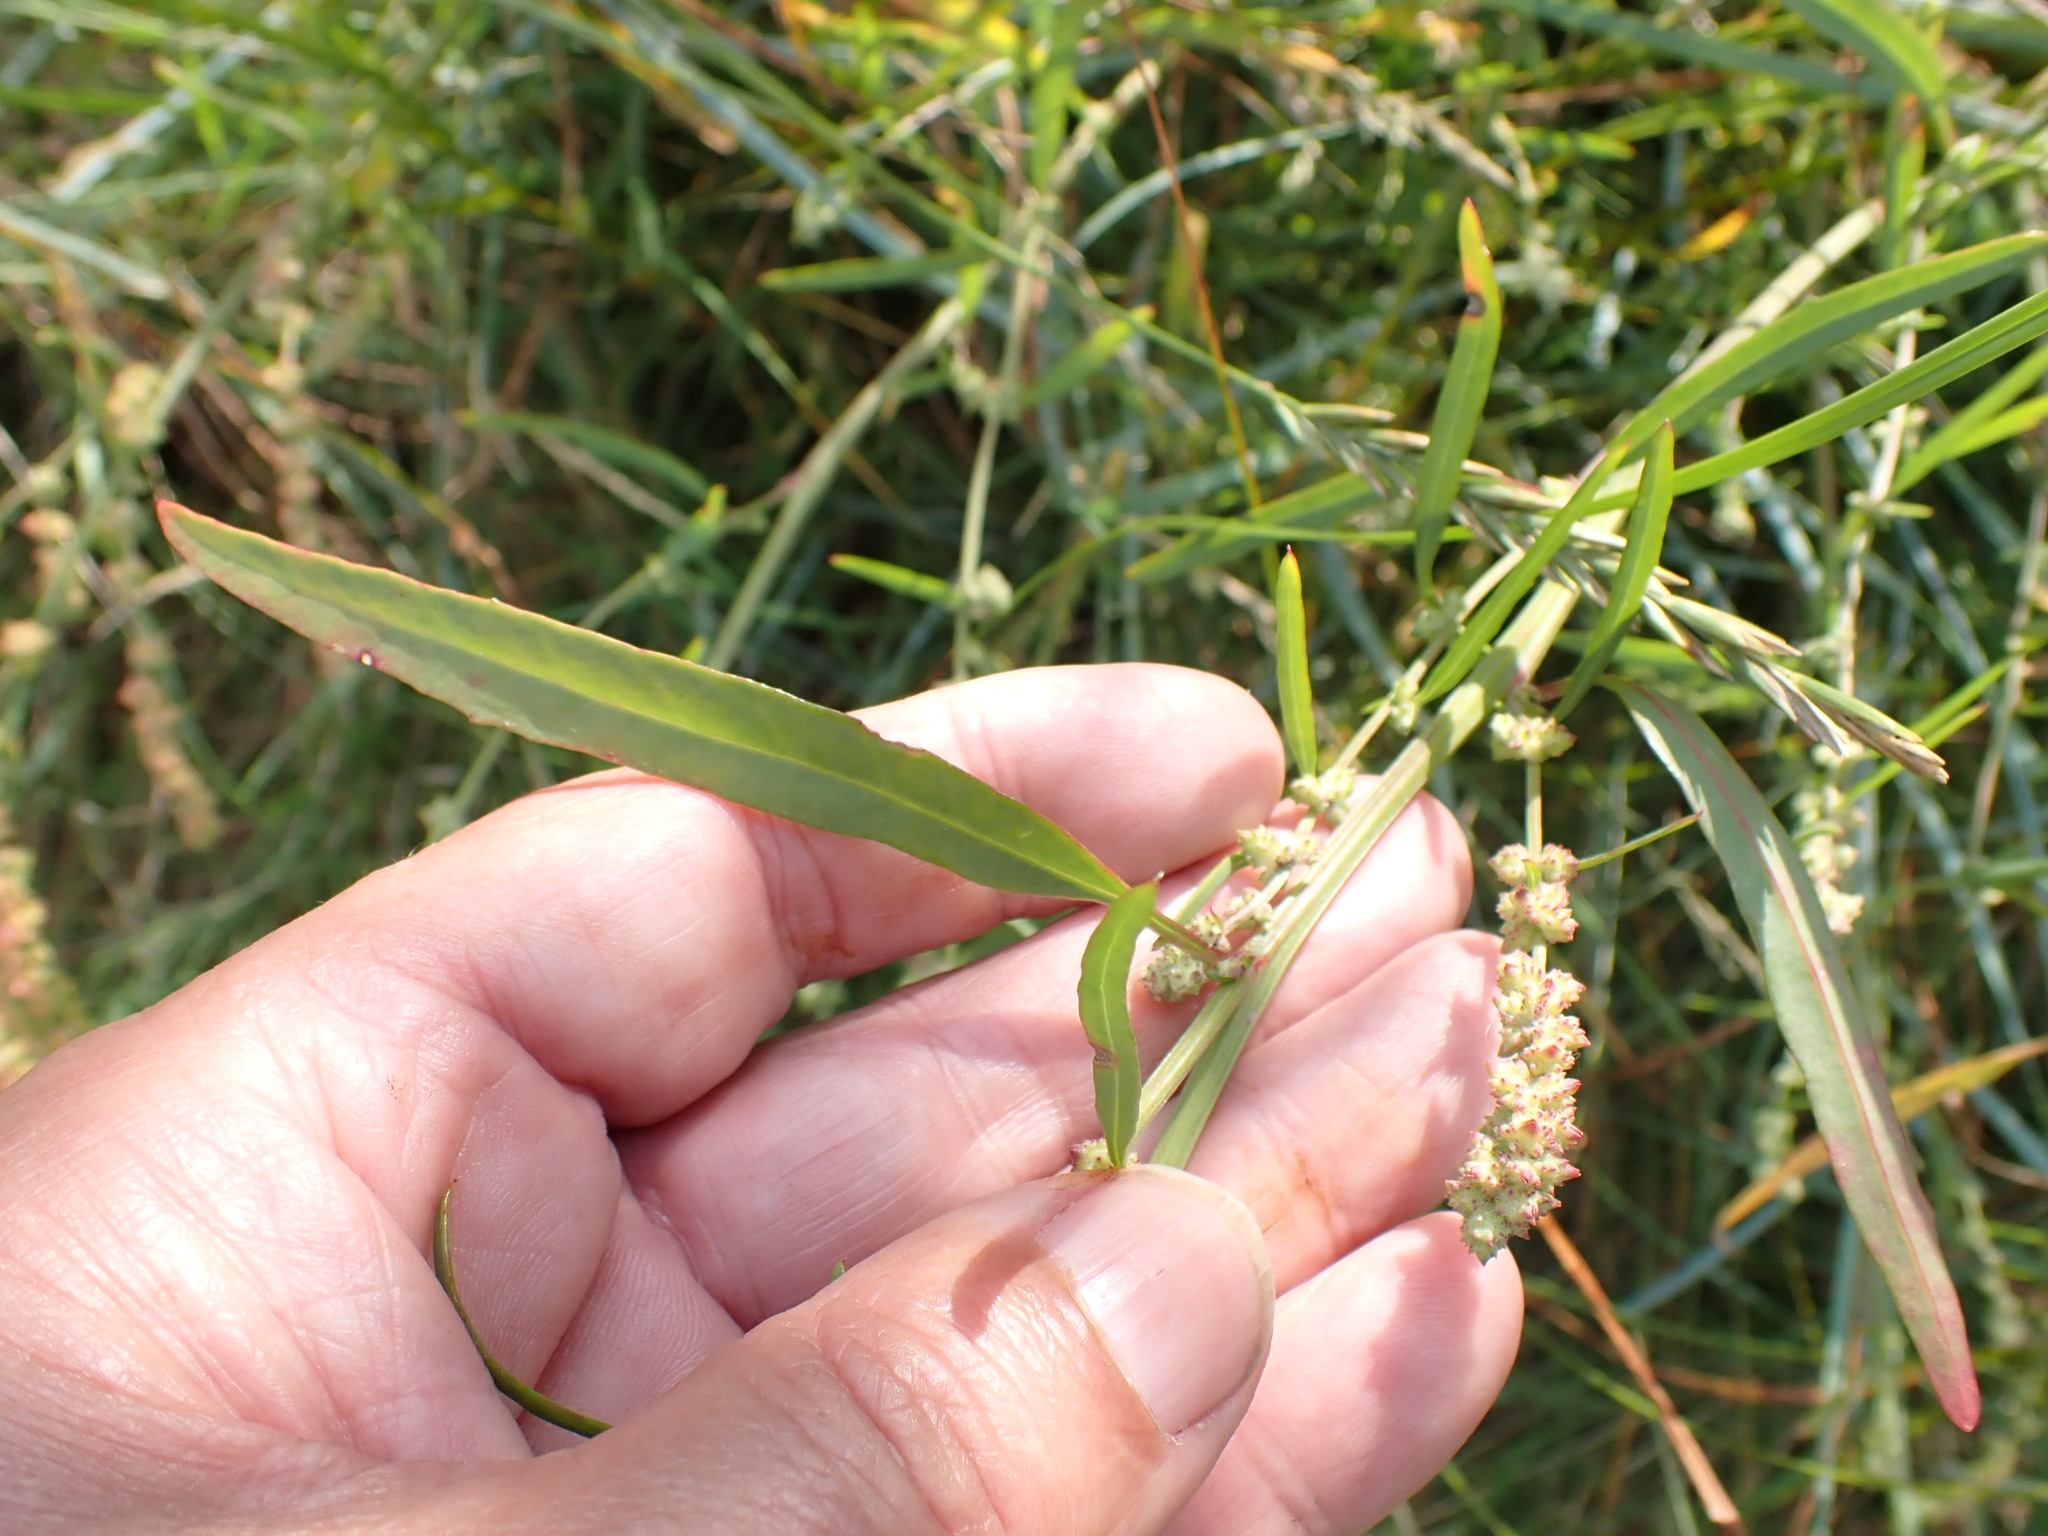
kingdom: Plantae
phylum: Tracheophyta
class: Magnoliopsida
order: Caryophyllales
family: Amaranthaceae
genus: Atriplex
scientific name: Atriplex littoralis
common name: Grass-leaved orache
